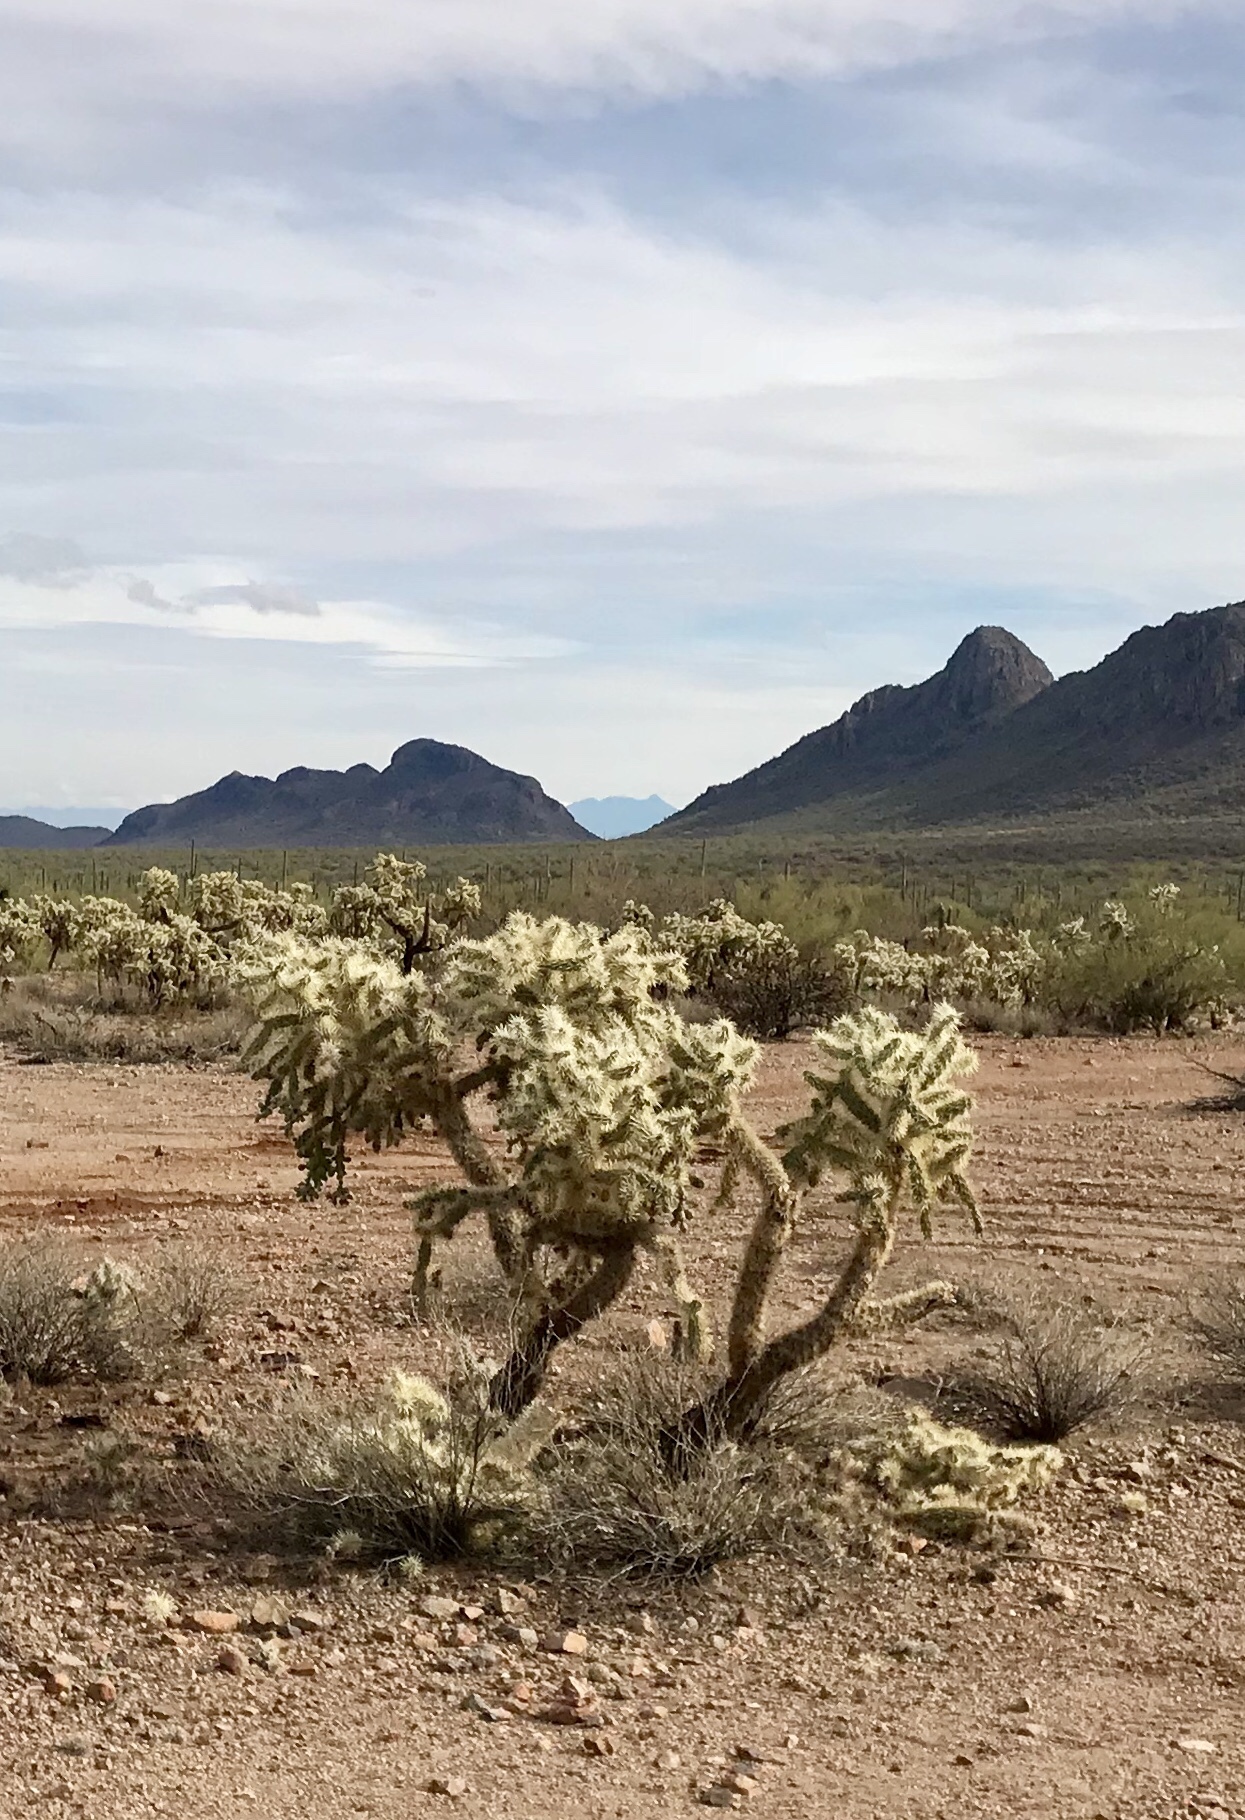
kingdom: Plantae
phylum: Tracheophyta
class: Magnoliopsida
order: Caryophyllales
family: Cactaceae
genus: Cylindropuntia
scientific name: Cylindropuntia fulgida
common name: Jumping cholla
